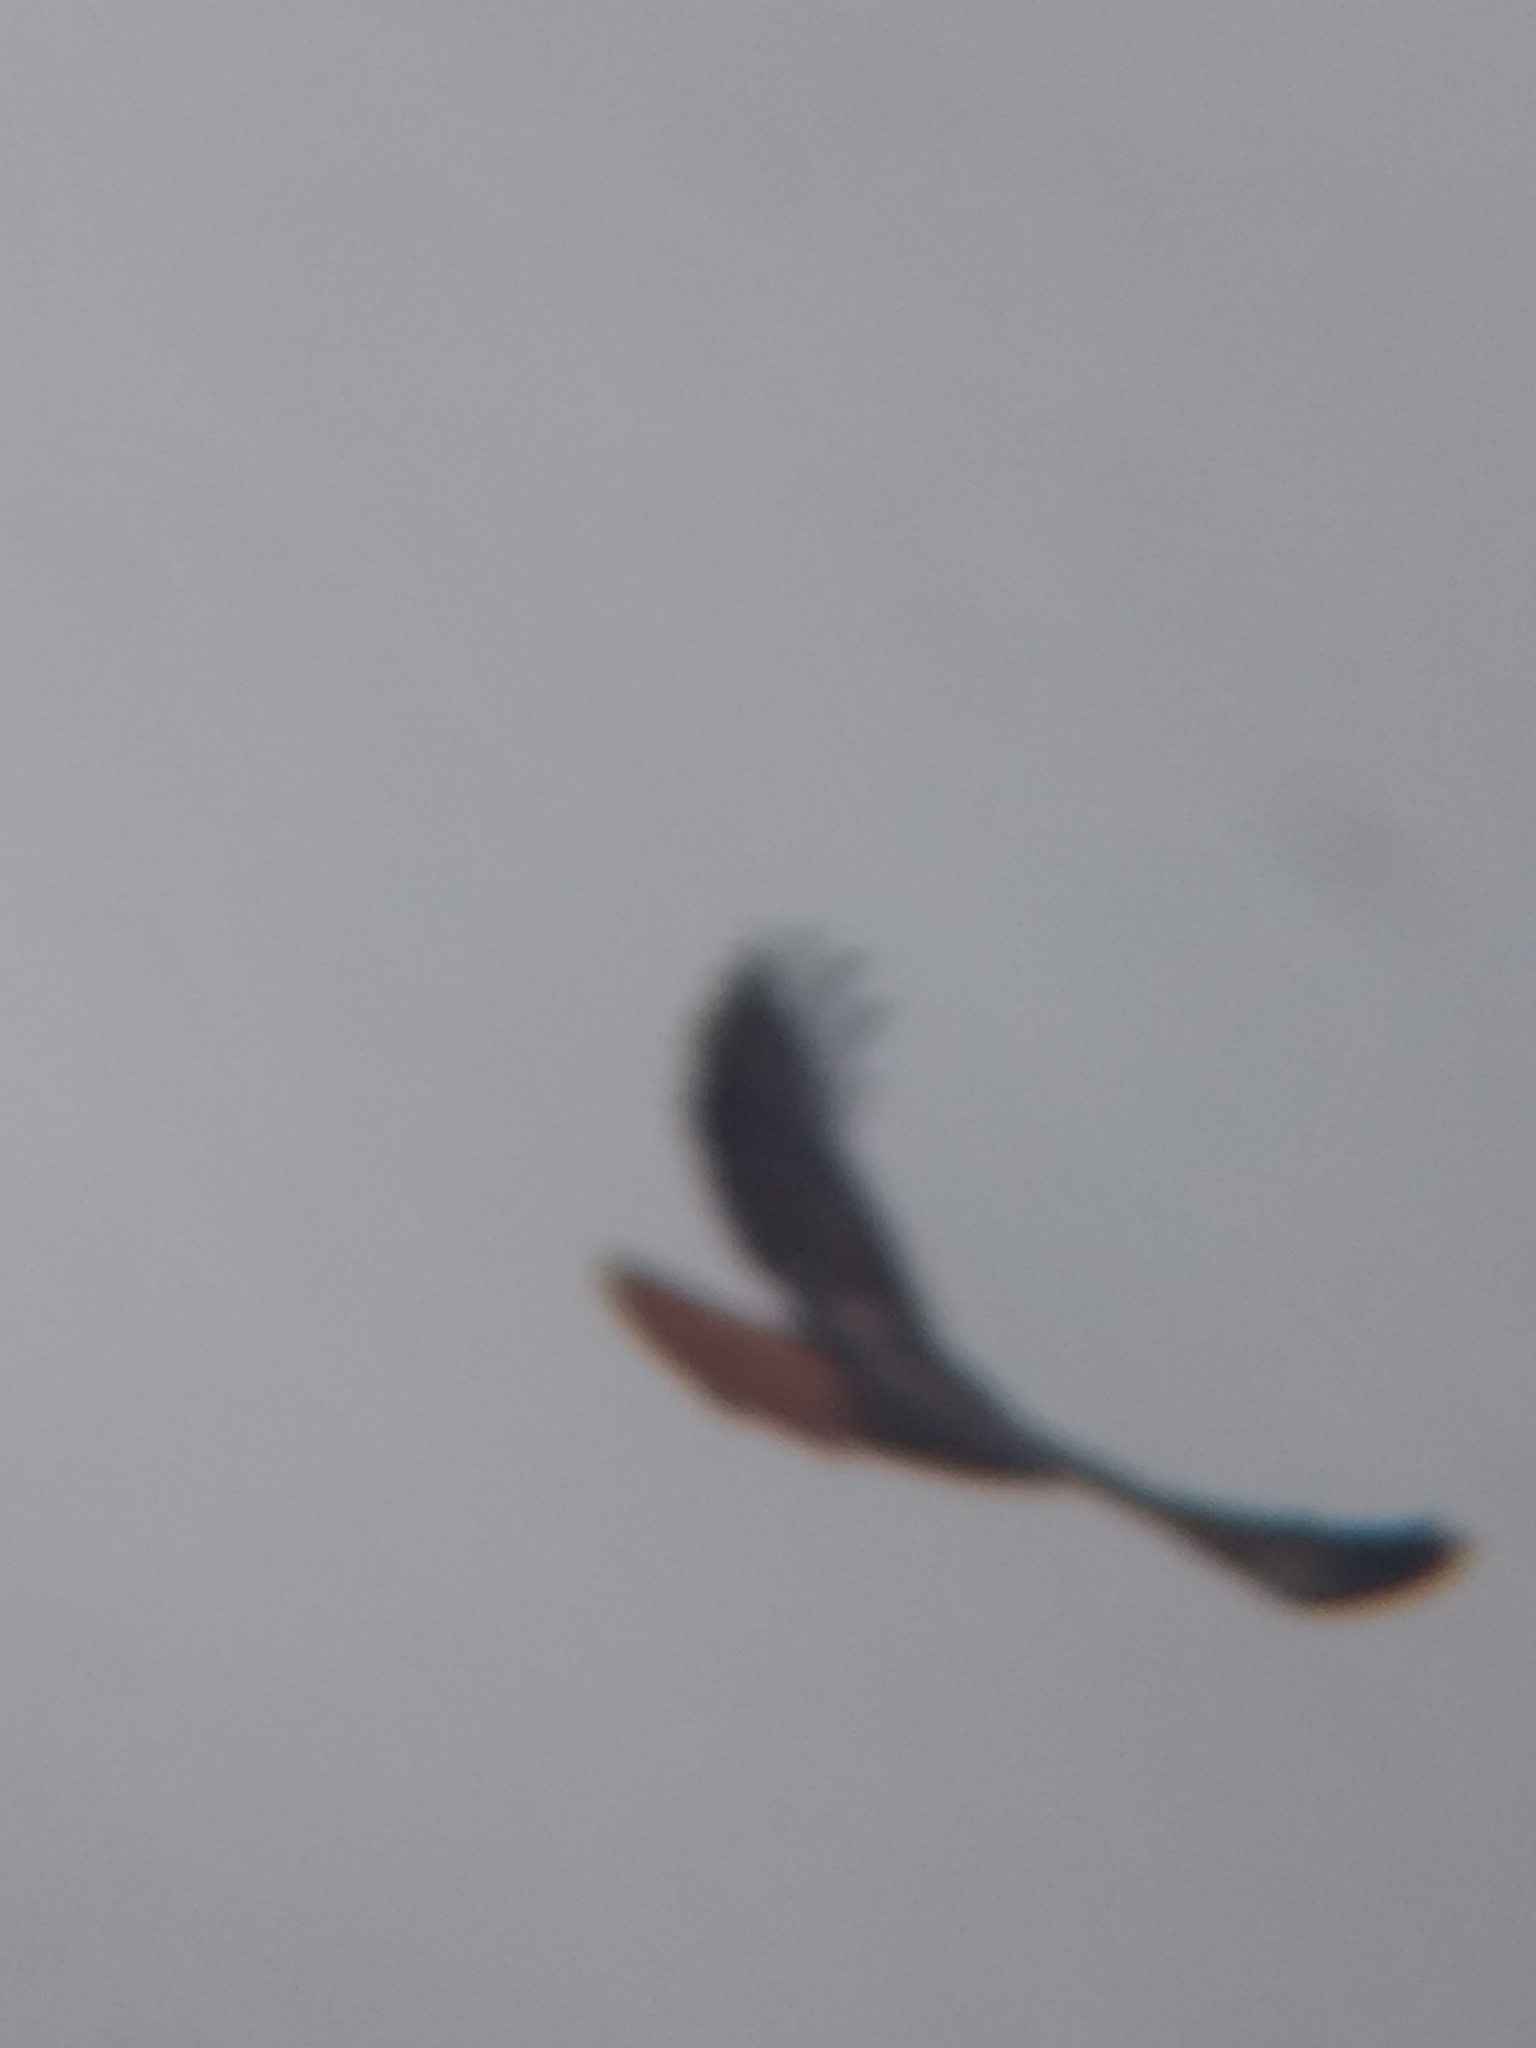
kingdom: Animalia
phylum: Chordata
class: Aves
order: Accipitriformes
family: Accipitridae
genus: Buteo
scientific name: Buteo jamaicensis
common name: Red-tailed hawk
